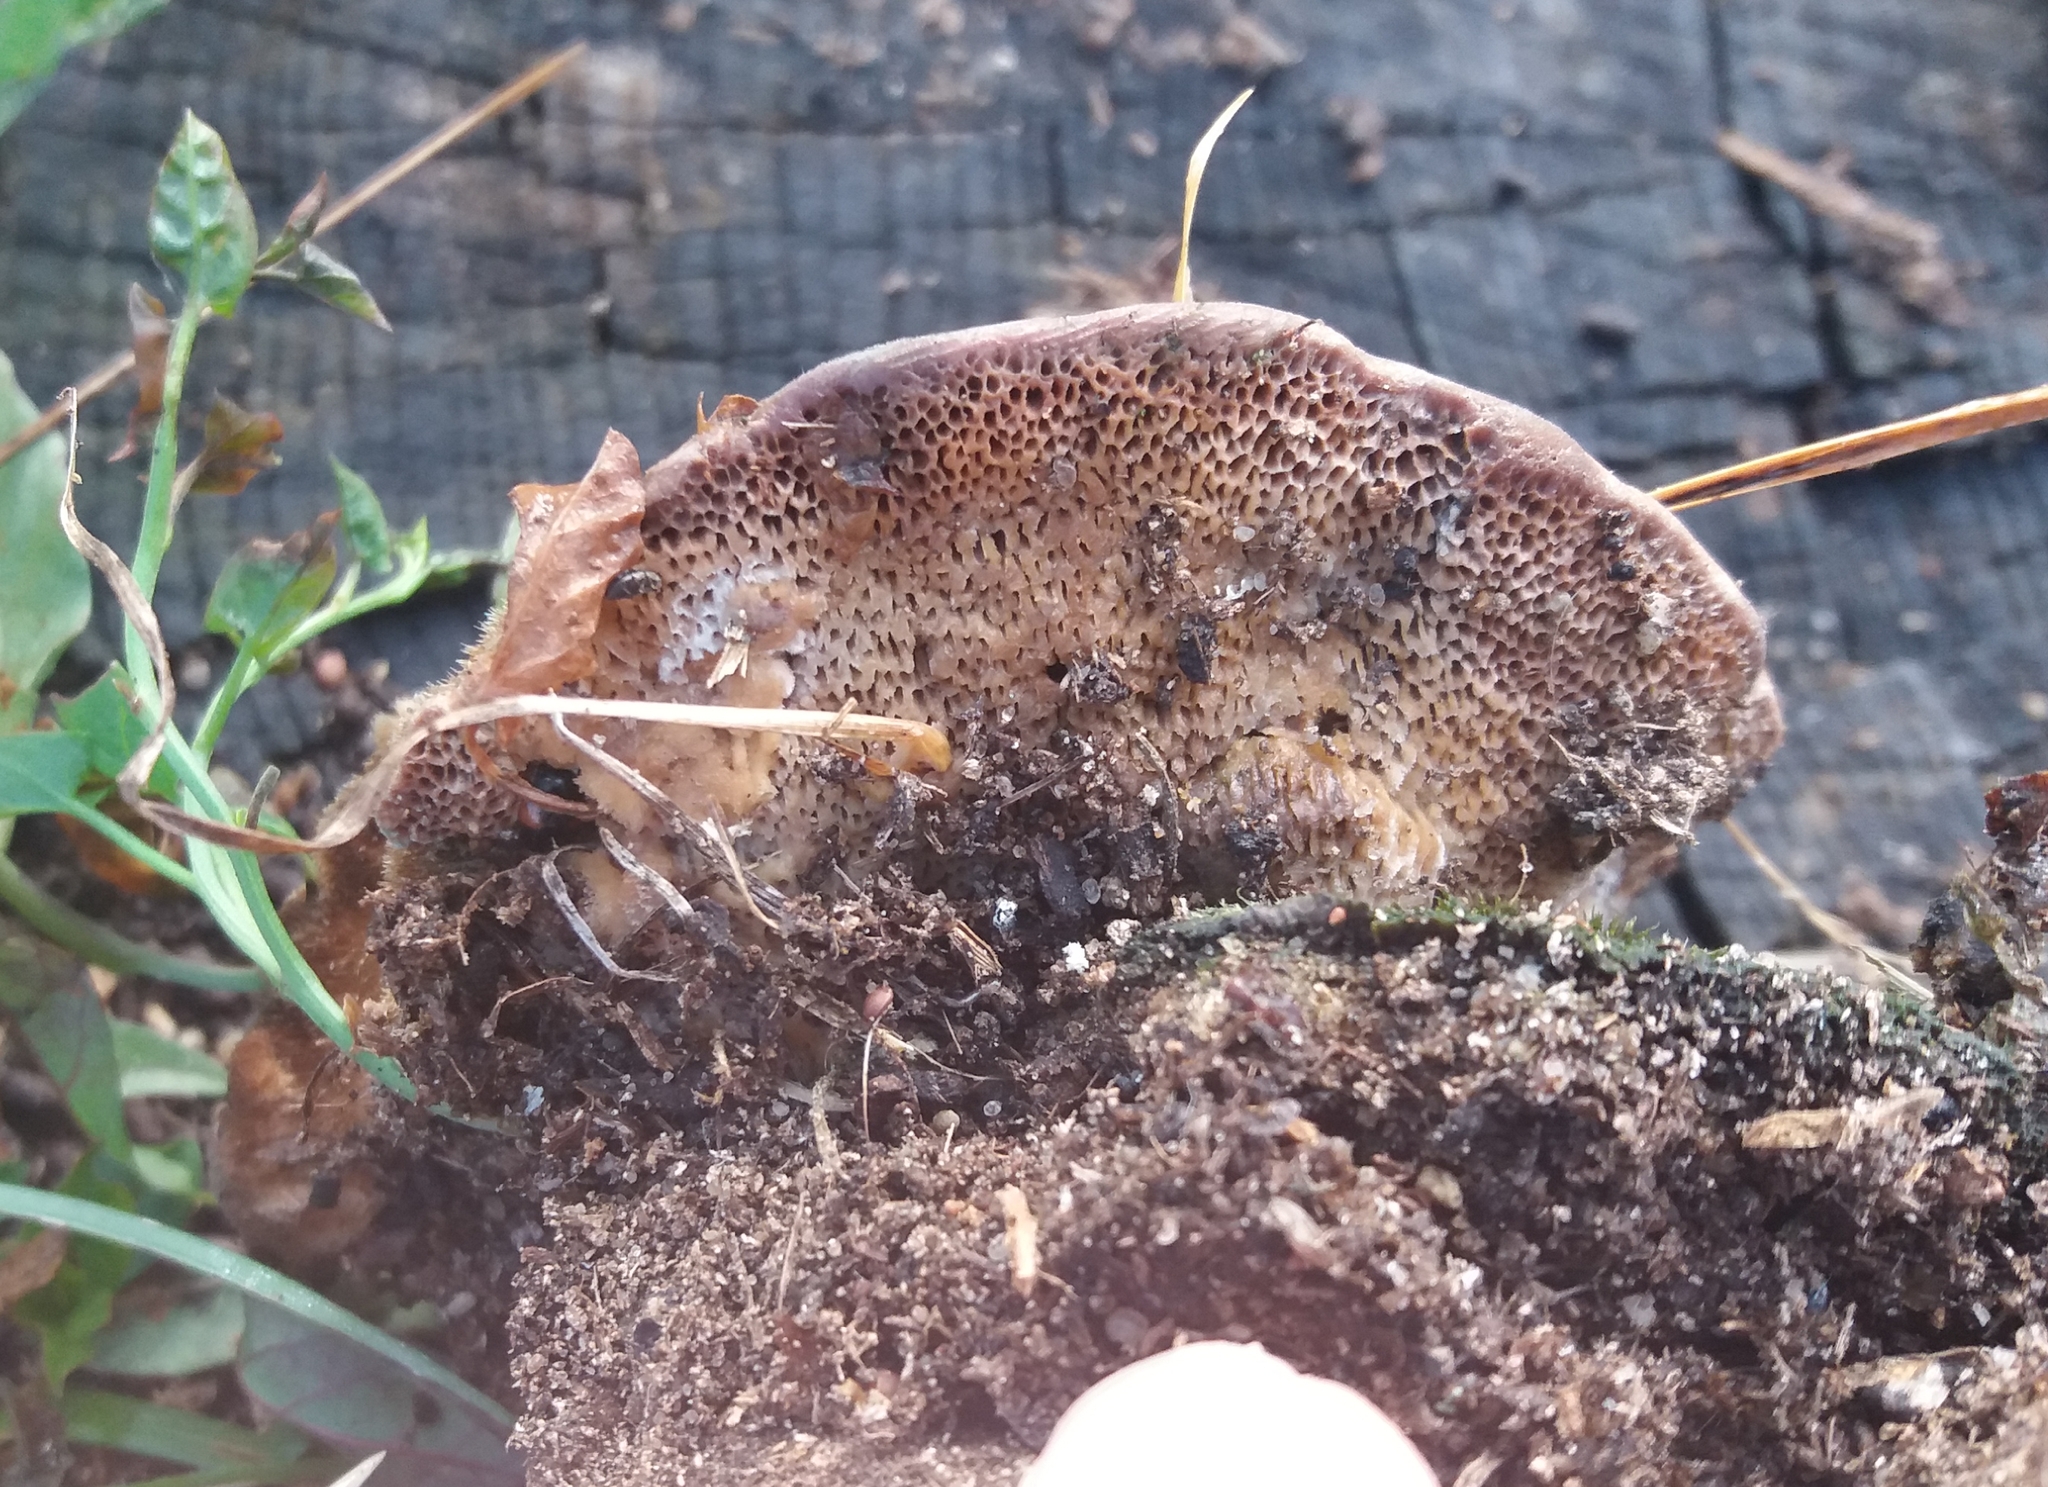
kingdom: Fungi
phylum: Basidiomycota
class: Agaricomycetes
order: Polyporales
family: Polyporaceae
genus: Trametes
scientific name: Trametes trogii
